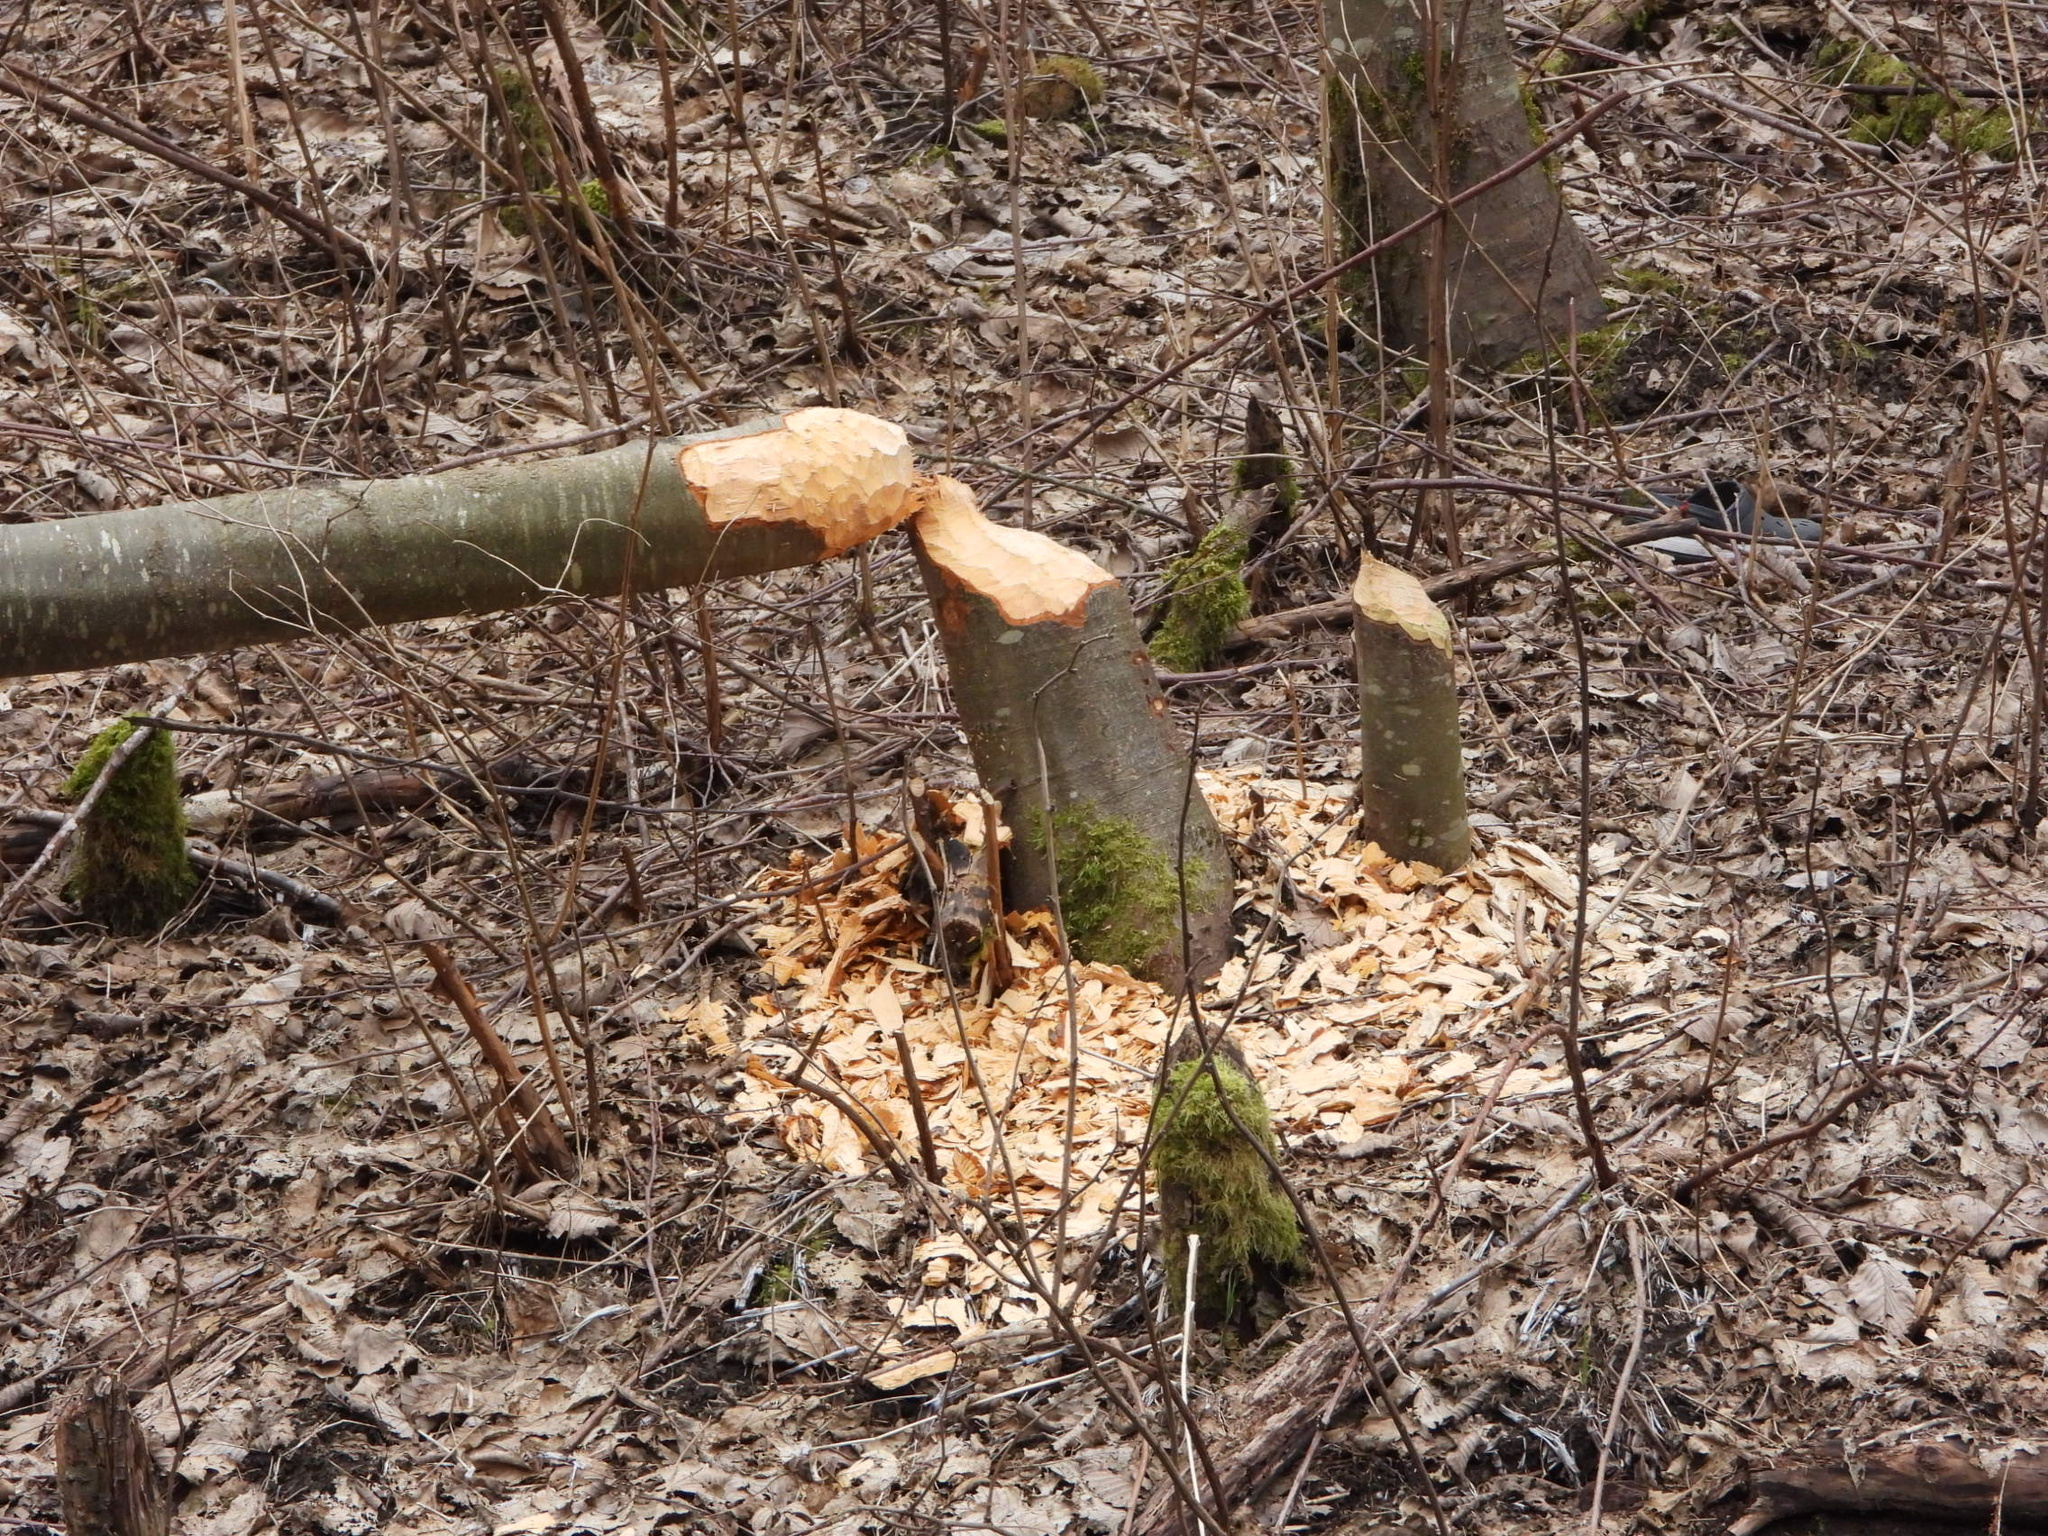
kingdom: Animalia
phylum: Chordata
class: Mammalia
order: Rodentia
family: Castoridae
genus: Castor
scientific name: Castor canadensis
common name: American beaver
